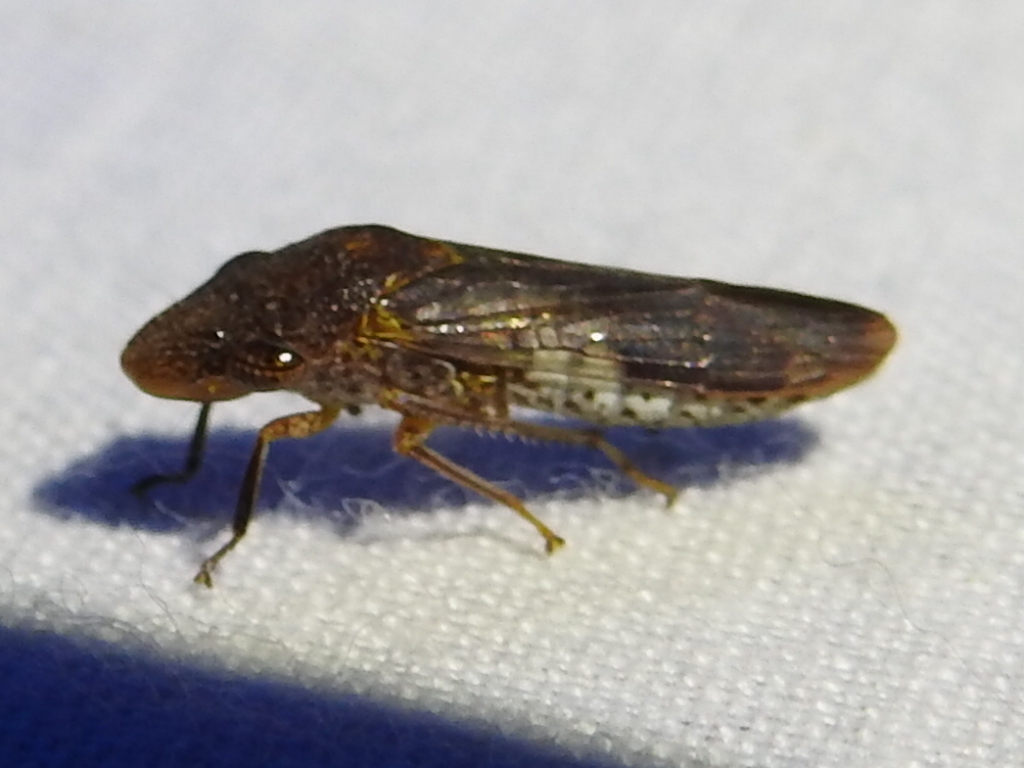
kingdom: Animalia
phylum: Arthropoda
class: Insecta
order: Hemiptera
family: Cicadellidae
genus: Homalodisca
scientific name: Homalodisca vitripennis
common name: Glassy-winged sharpshooter
